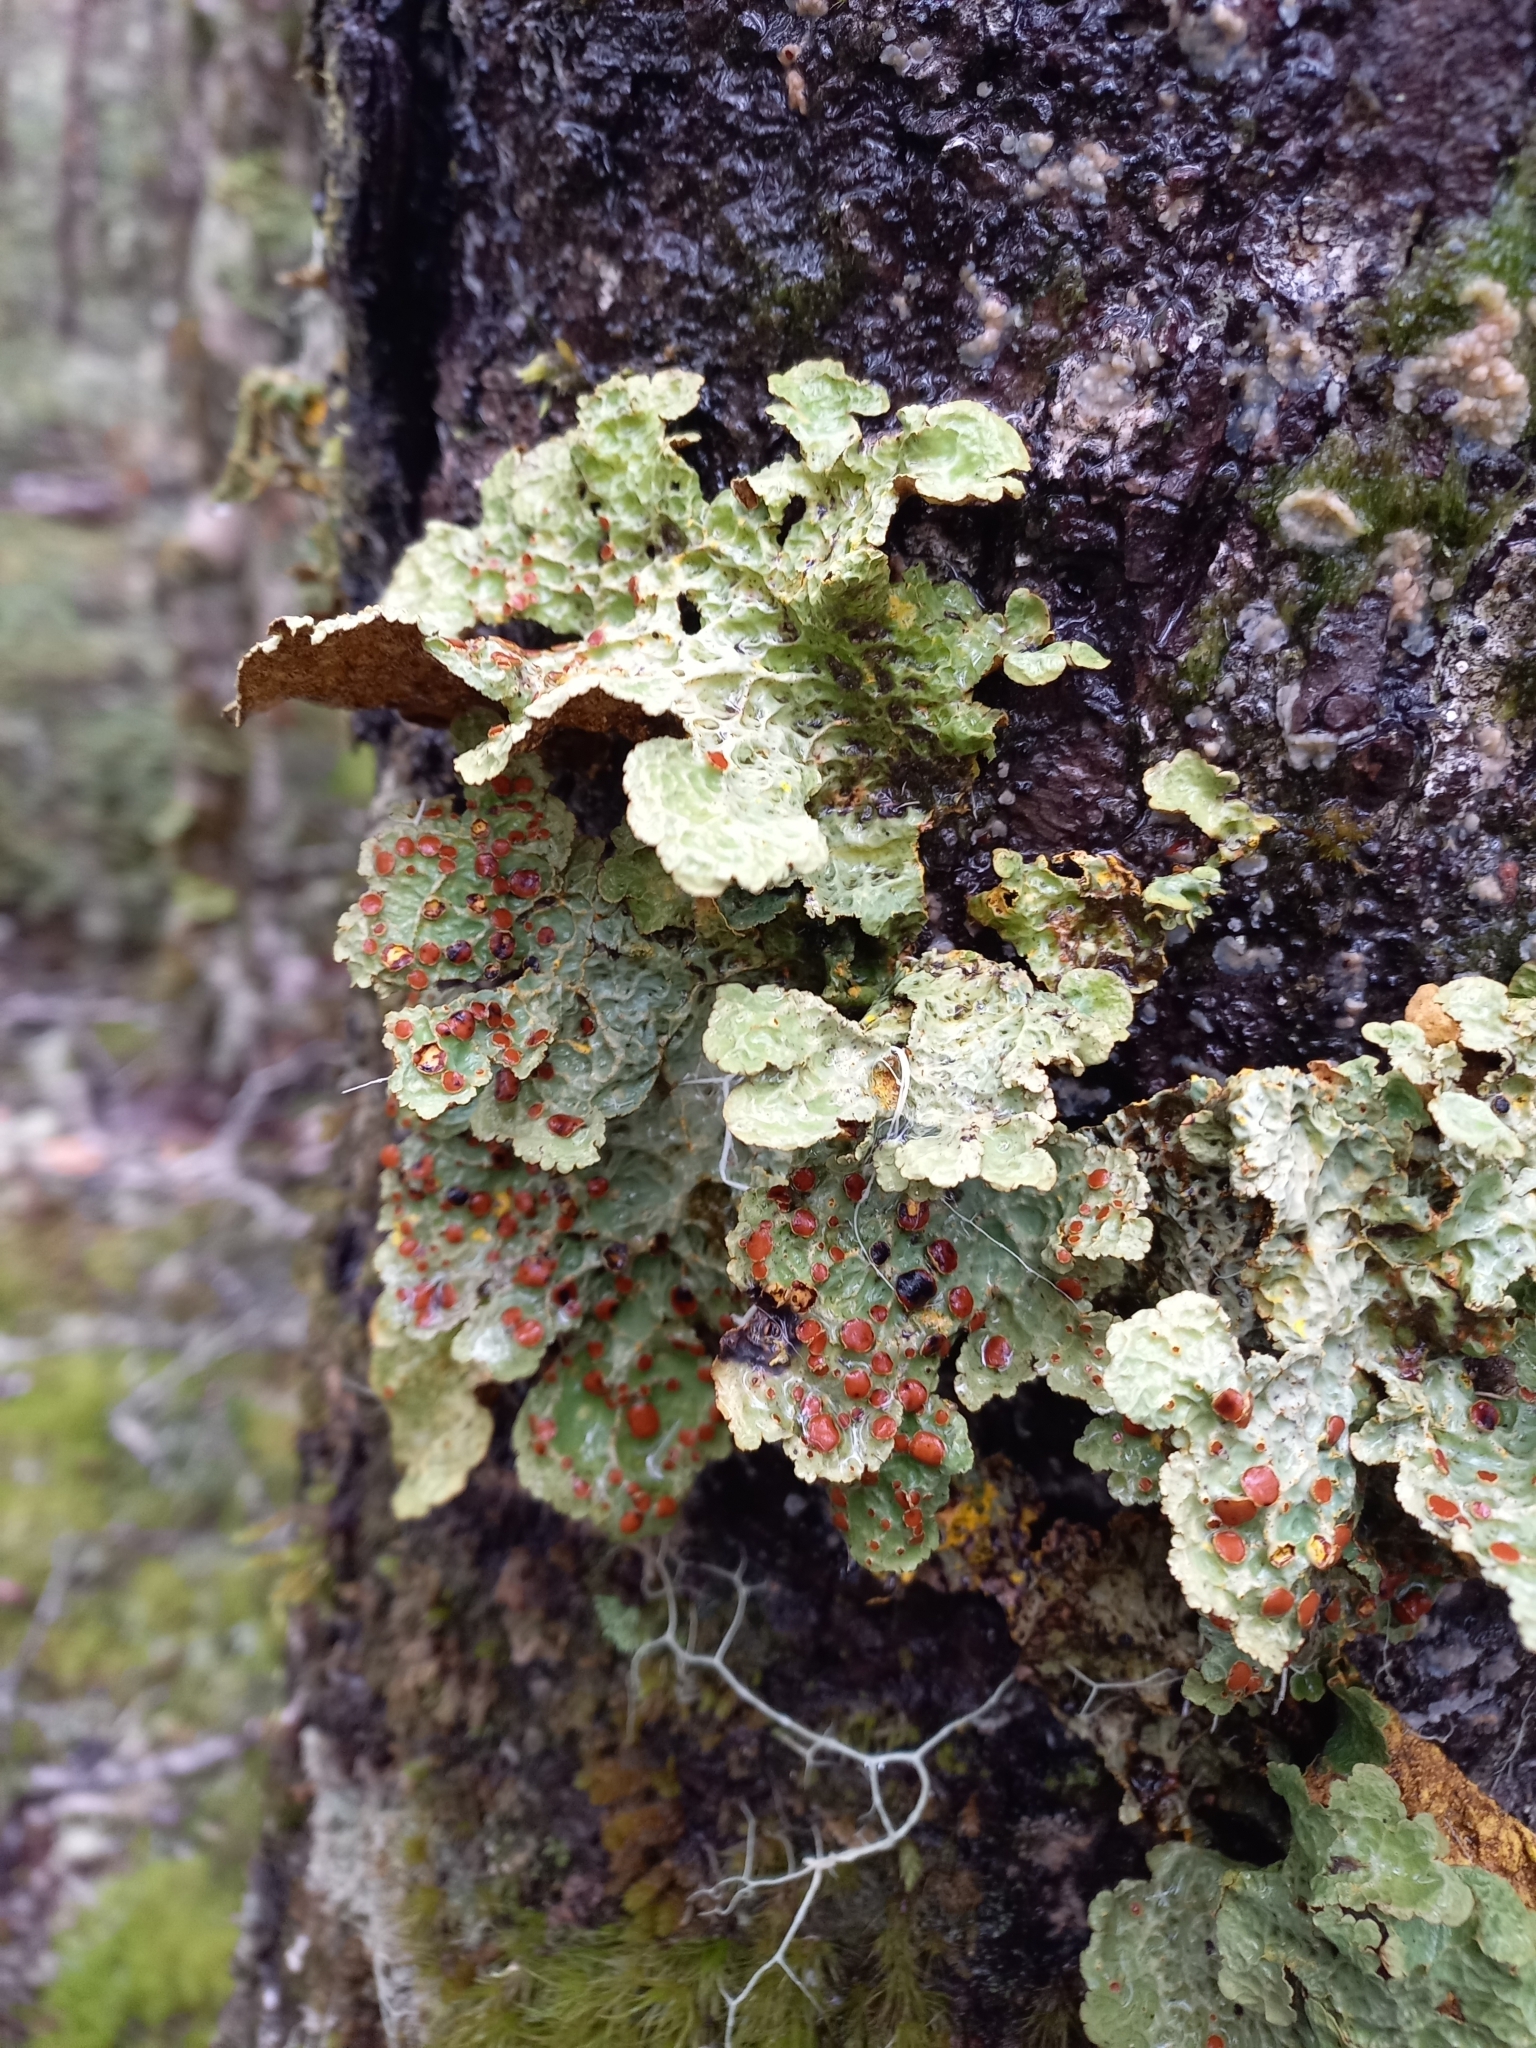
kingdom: Fungi
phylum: Ascomycota
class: Lecanoromycetes
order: Peltigerales
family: Lobariaceae
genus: Yarrumia
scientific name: Yarrumia coronata
